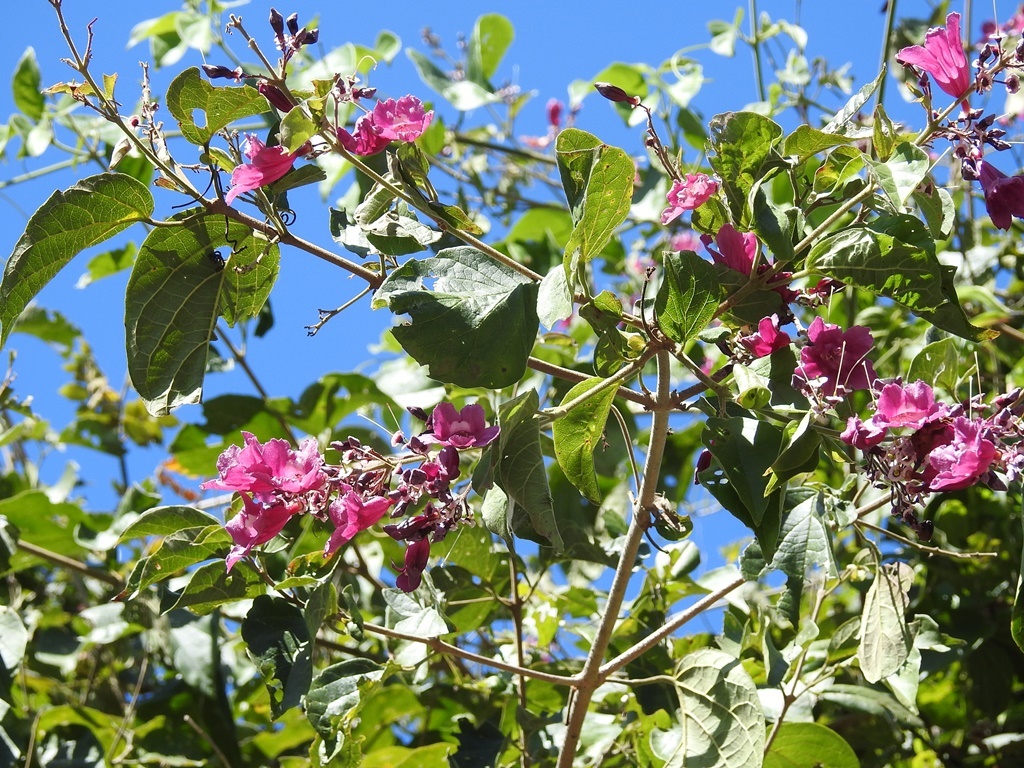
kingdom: Plantae
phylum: Tracheophyta
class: Magnoliopsida
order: Lamiales
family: Bignoniaceae
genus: Fridericia
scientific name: Fridericia chica
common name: Cricketvine
